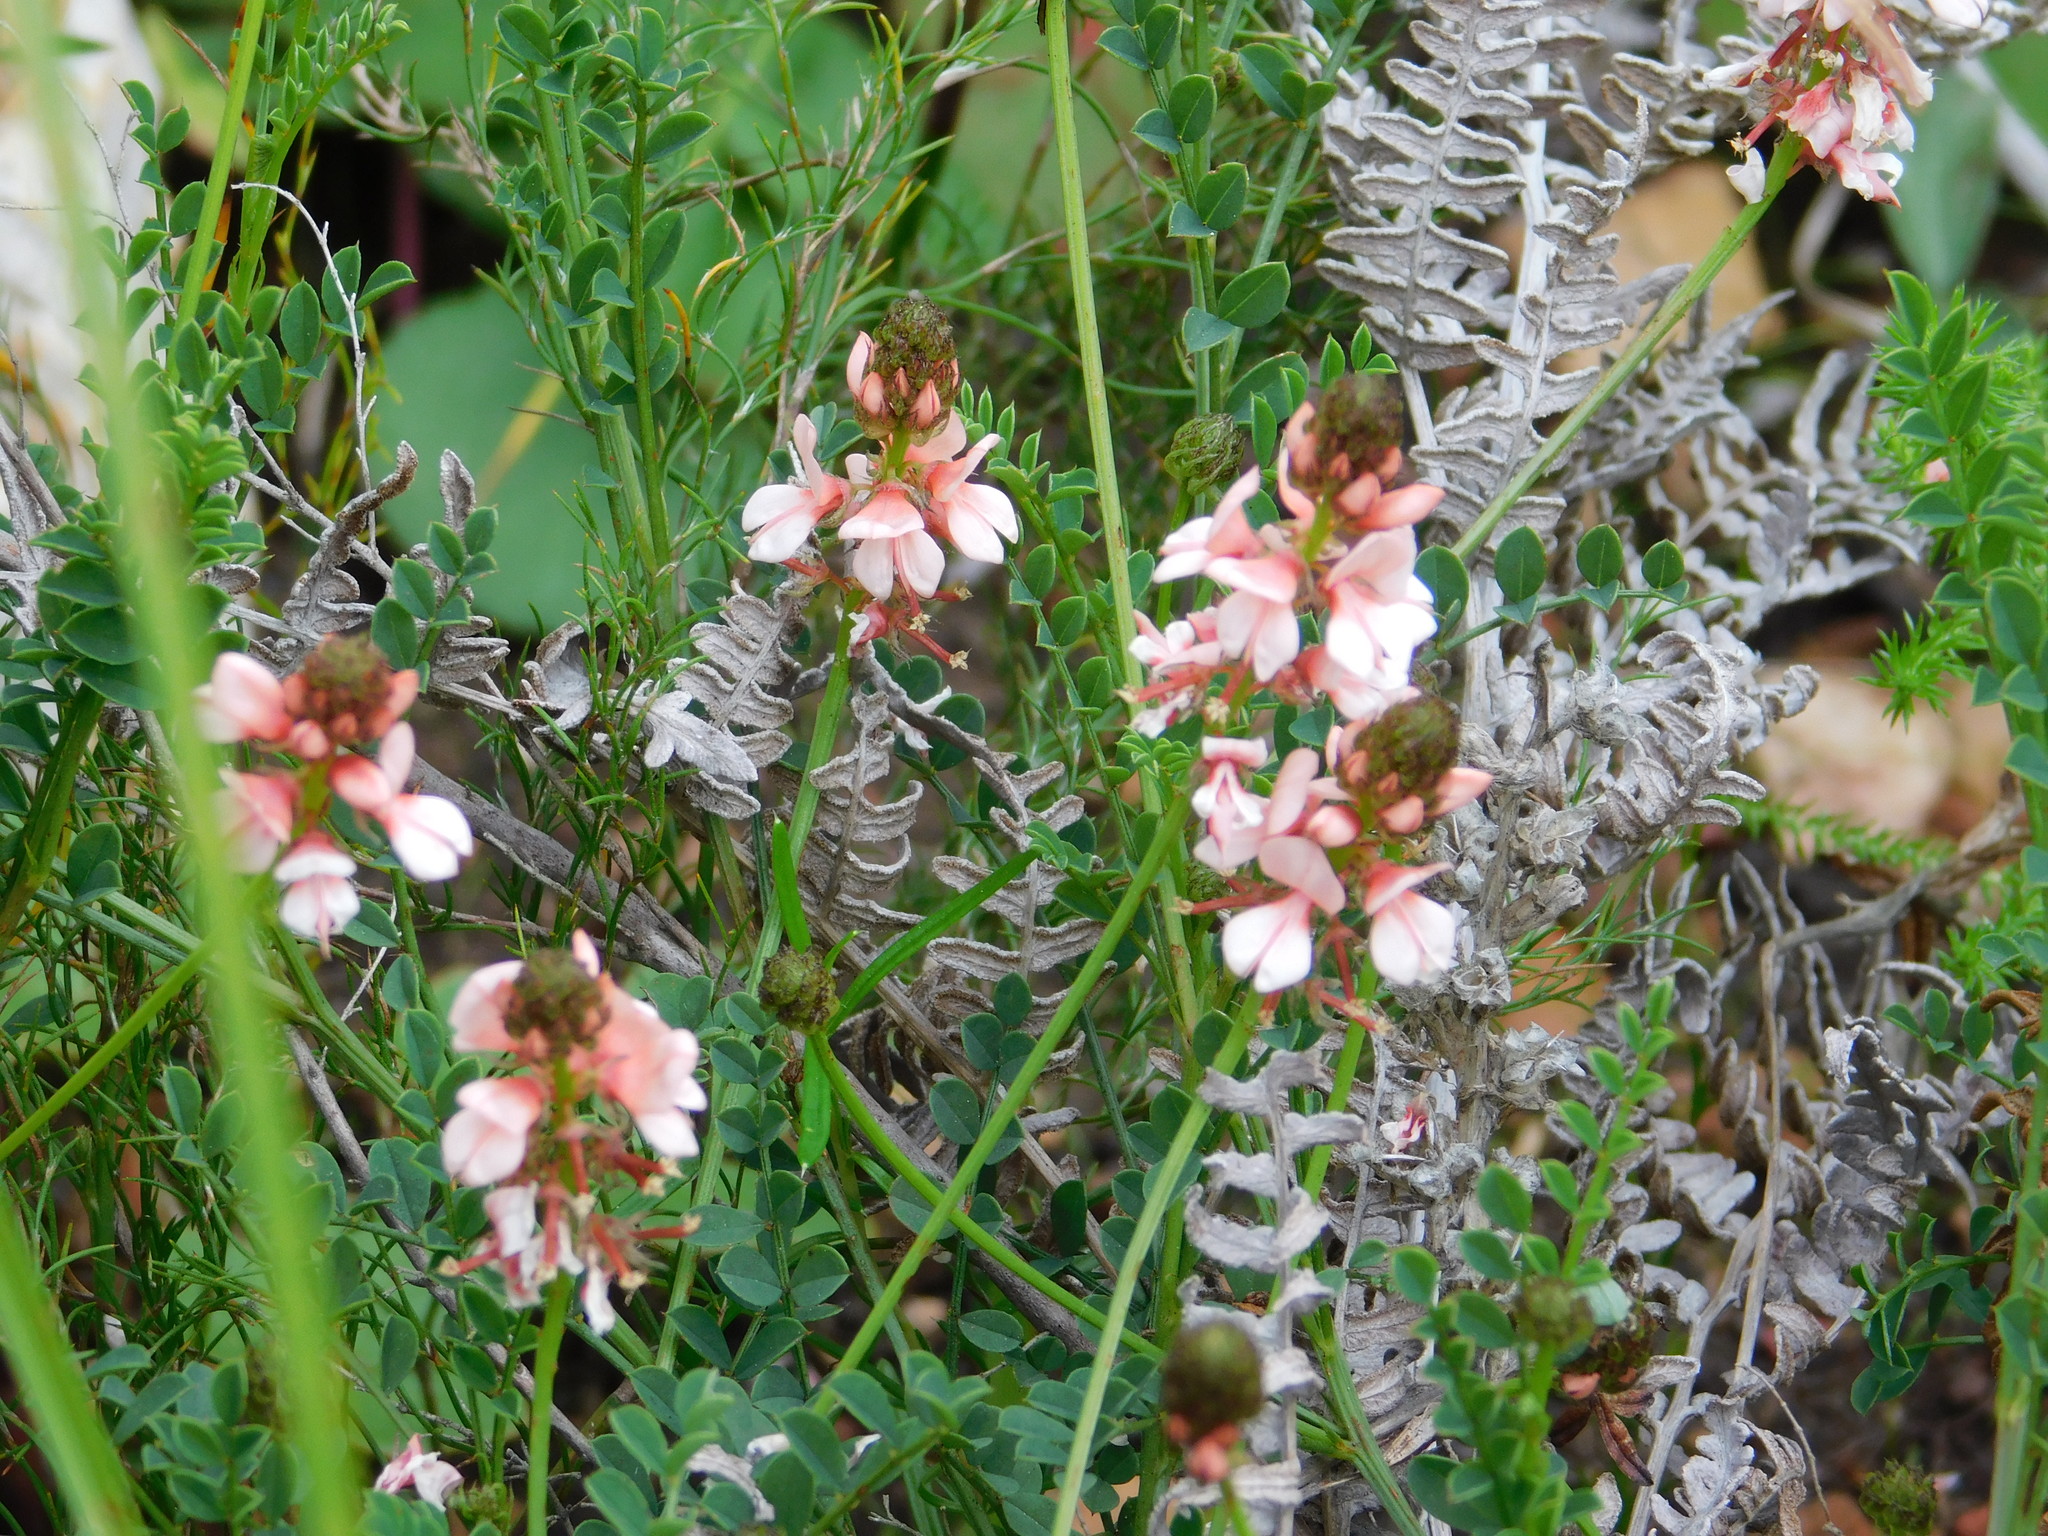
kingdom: Plantae
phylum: Tracheophyta
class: Magnoliopsida
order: Fabales
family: Fabaceae
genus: Indigofera
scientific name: Indigofera capillaris
